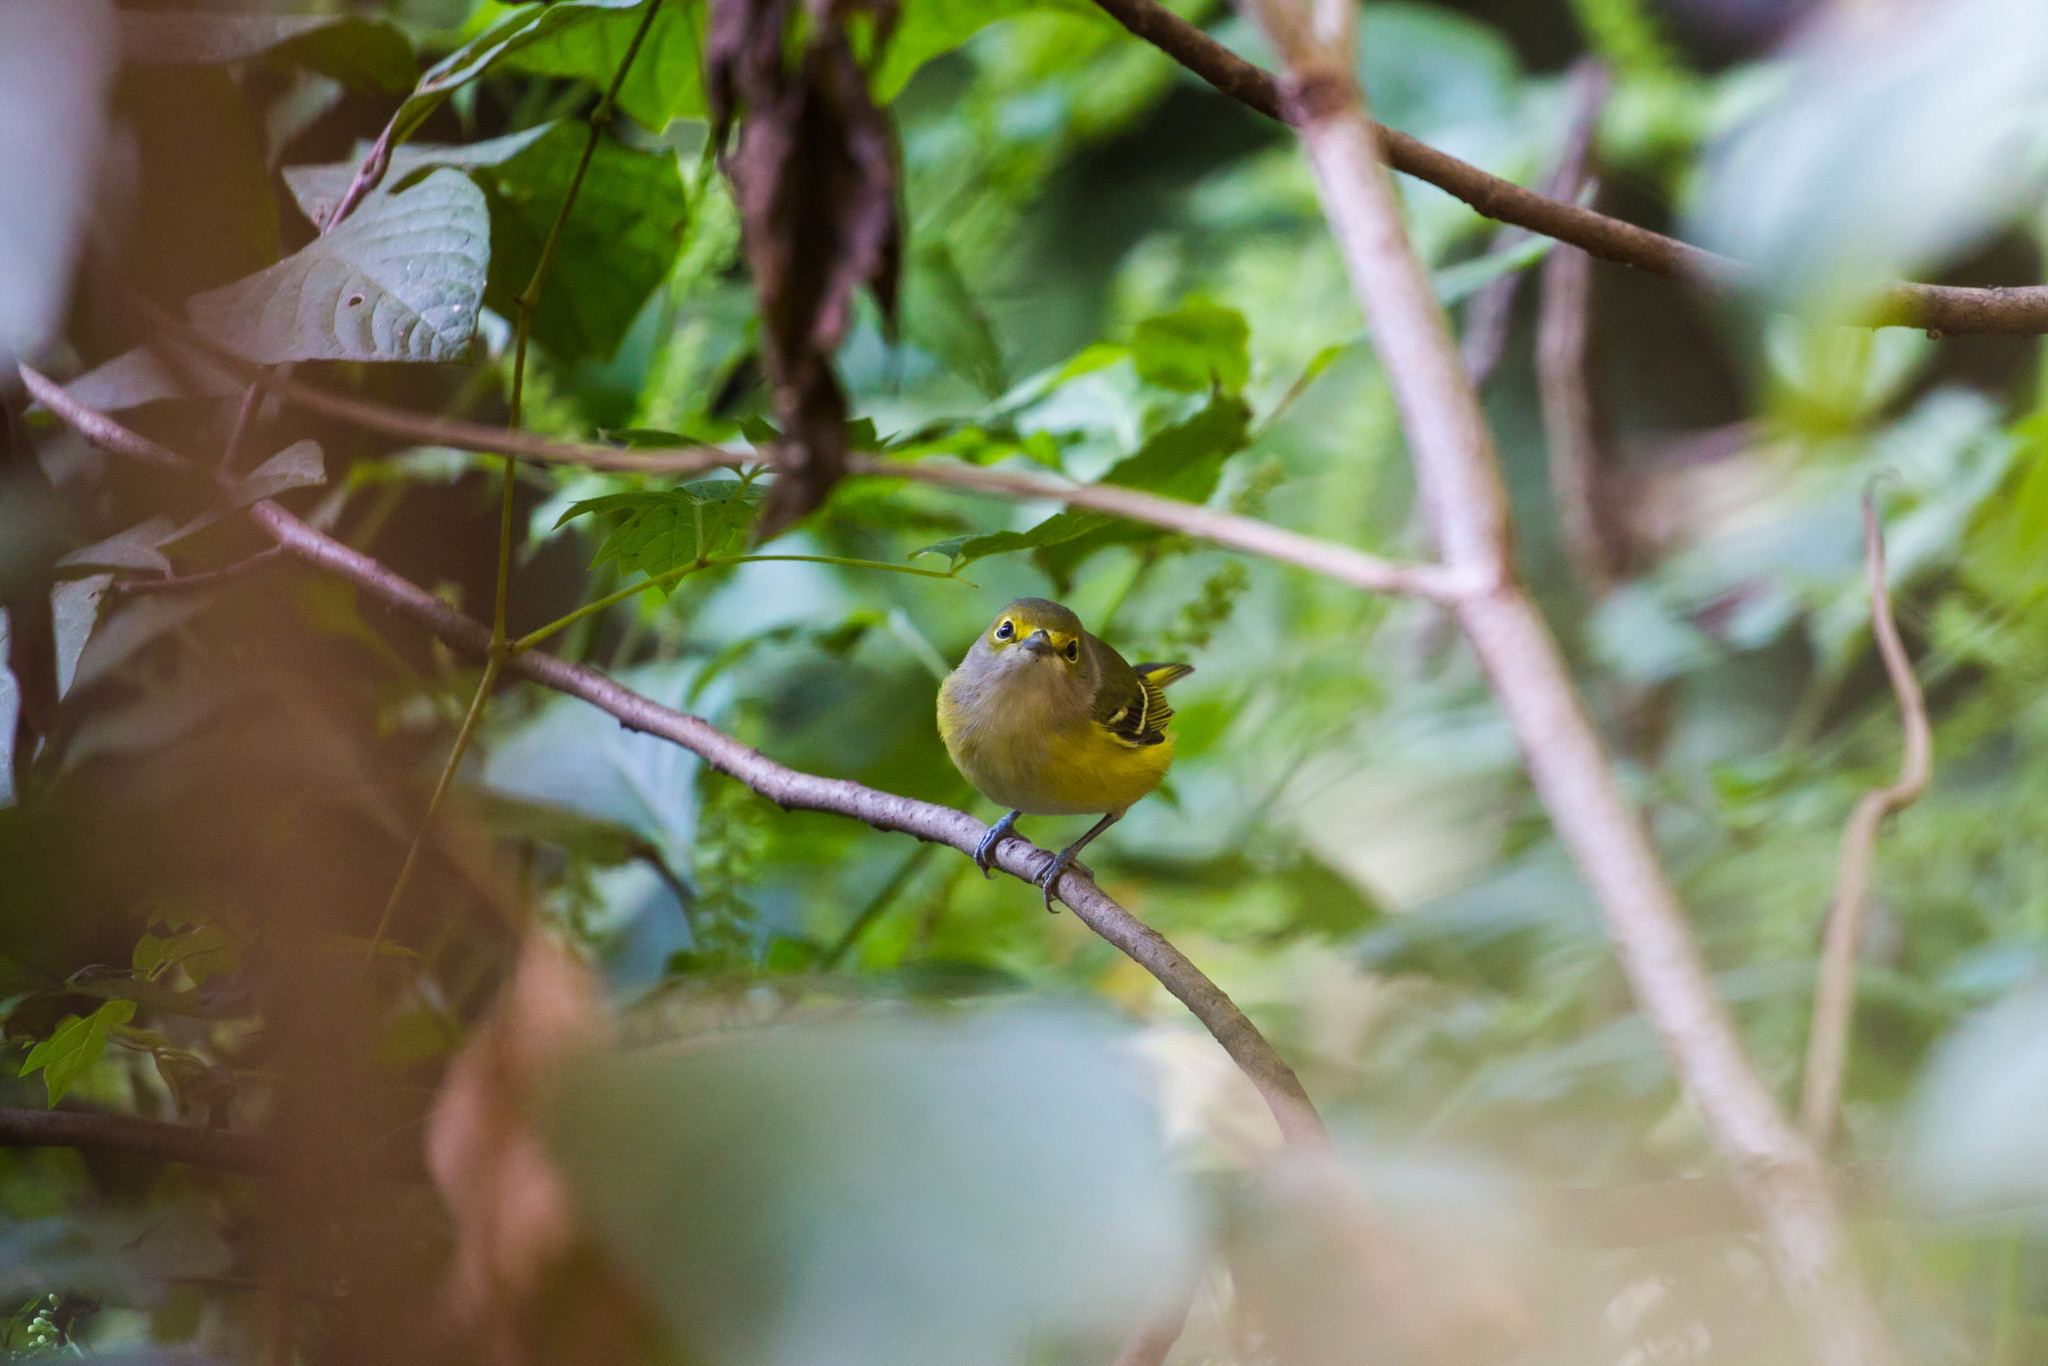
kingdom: Animalia
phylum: Chordata
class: Aves
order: Passeriformes
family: Vireonidae
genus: Vireo
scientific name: Vireo griseus
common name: White-eyed vireo
